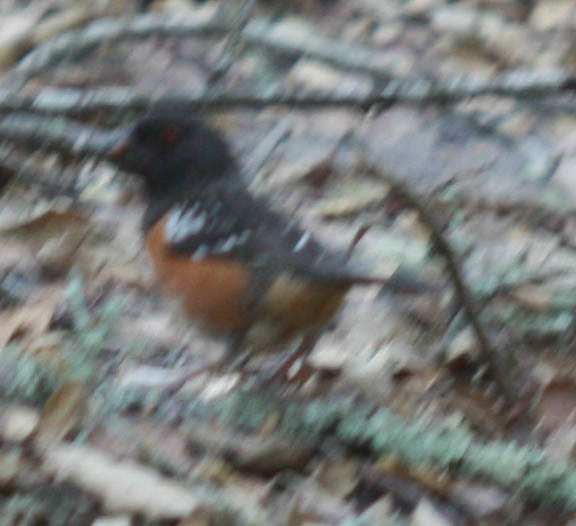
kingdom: Animalia
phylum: Chordata
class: Aves
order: Passeriformes
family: Passerellidae
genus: Pipilo
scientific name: Pipilo maculatus
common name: Spotted towhee
